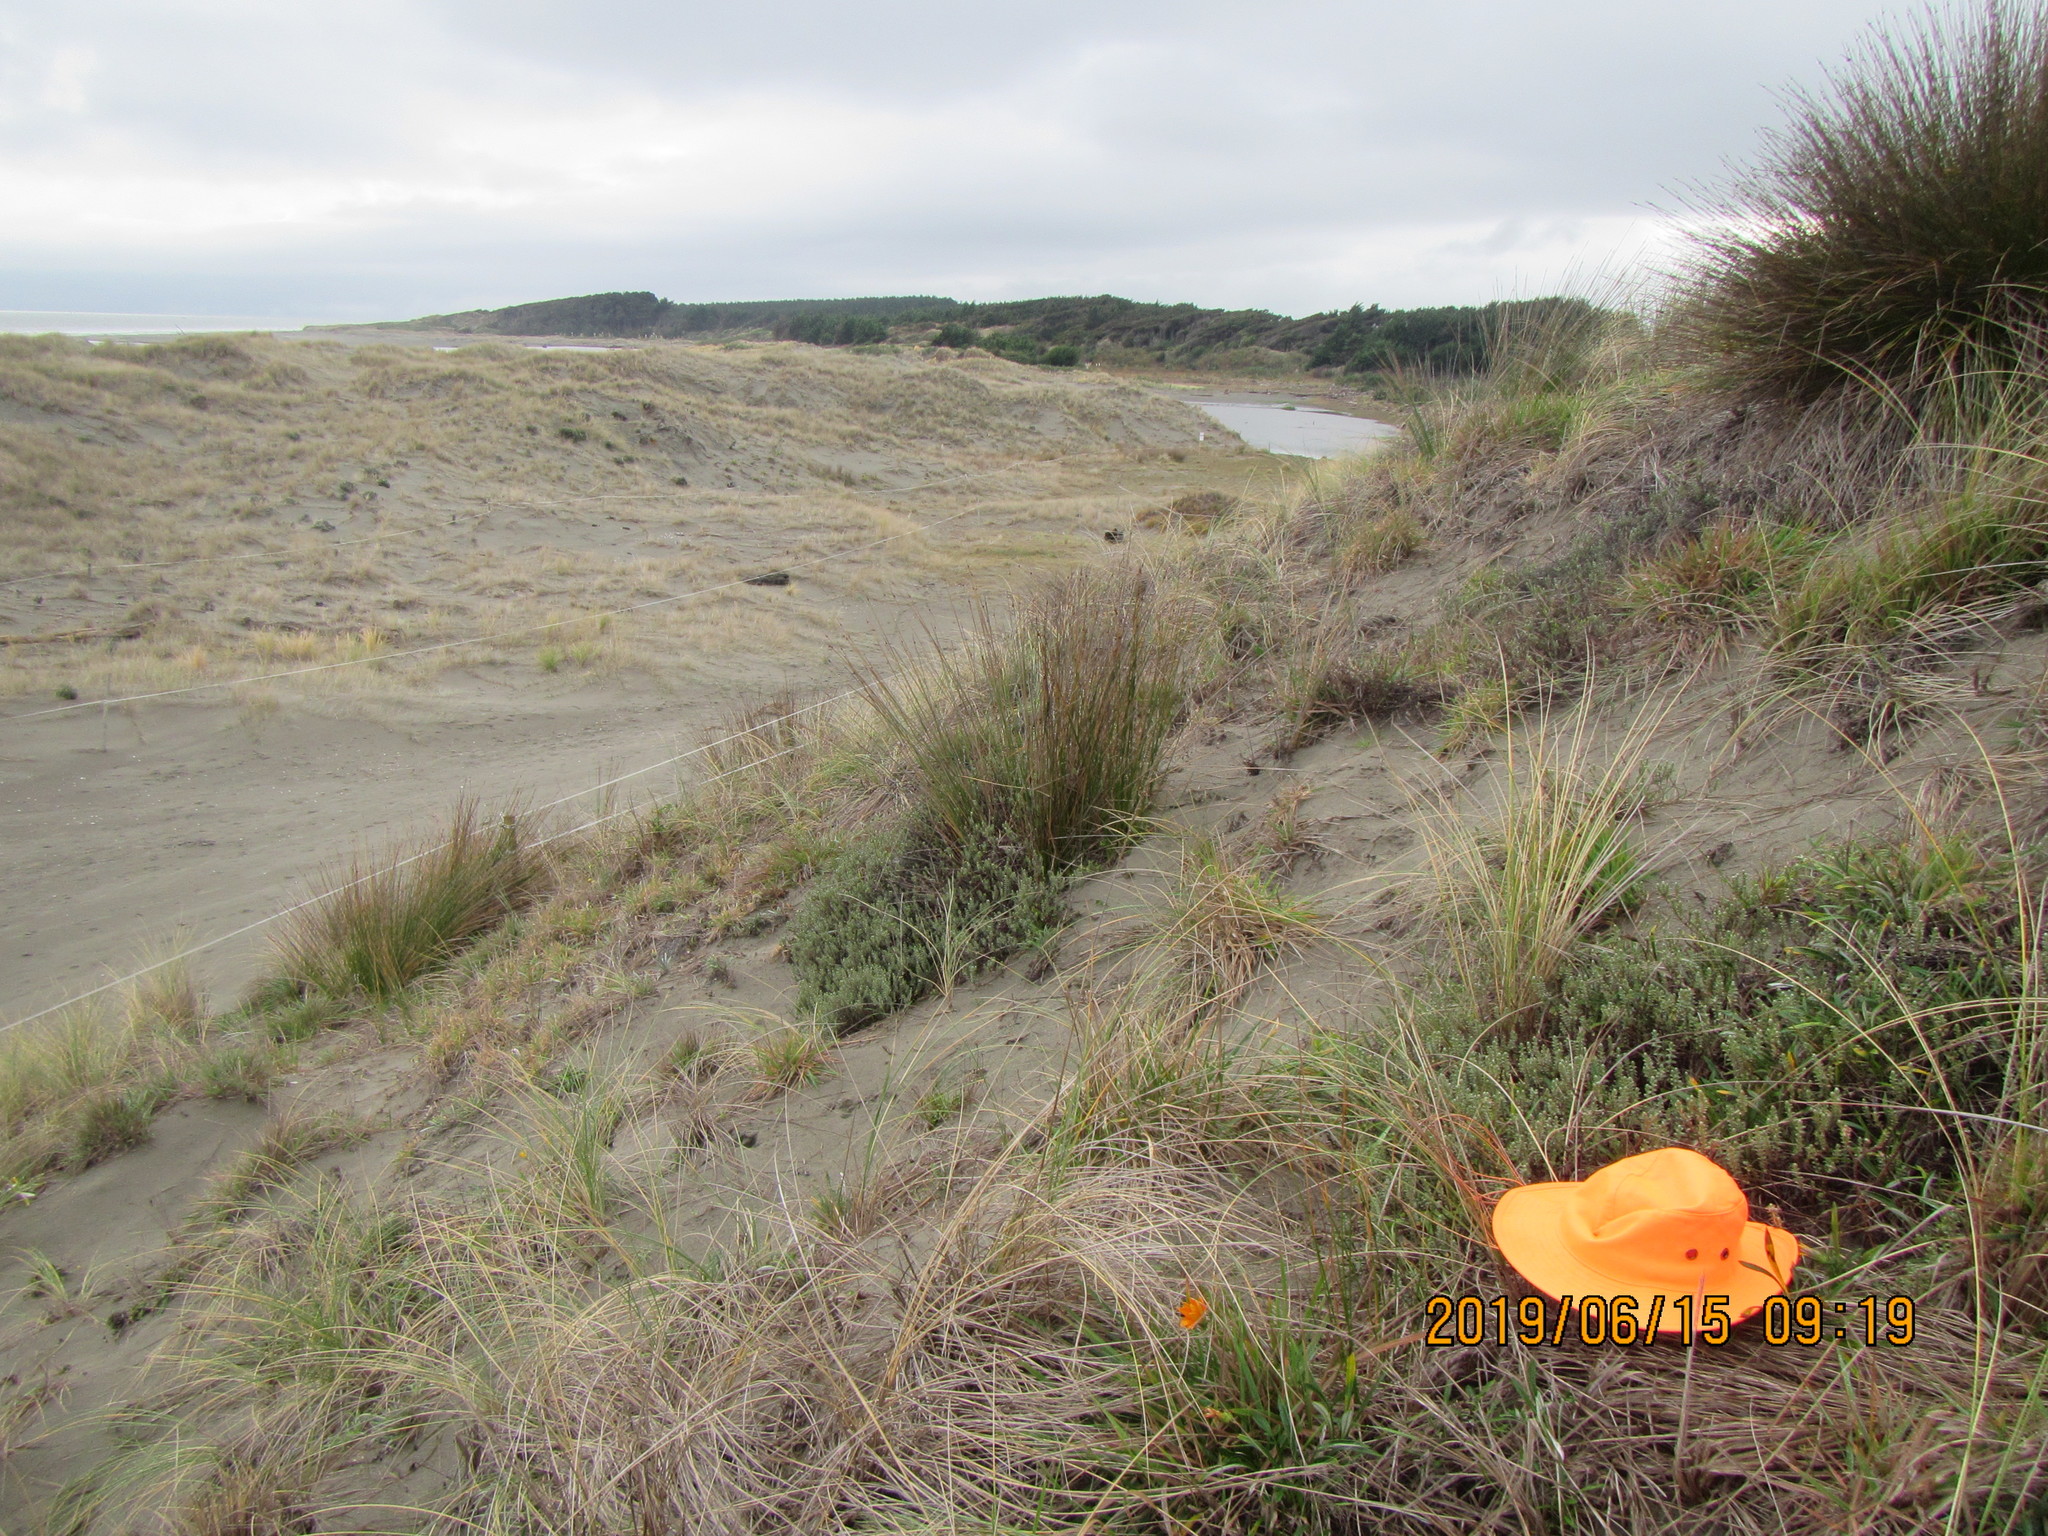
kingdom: Plantae
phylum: Tracheophyta
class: Magnoliopsida
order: Malvales
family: Thymelaeaceae
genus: Pimelea
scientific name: Pimelea villosa
